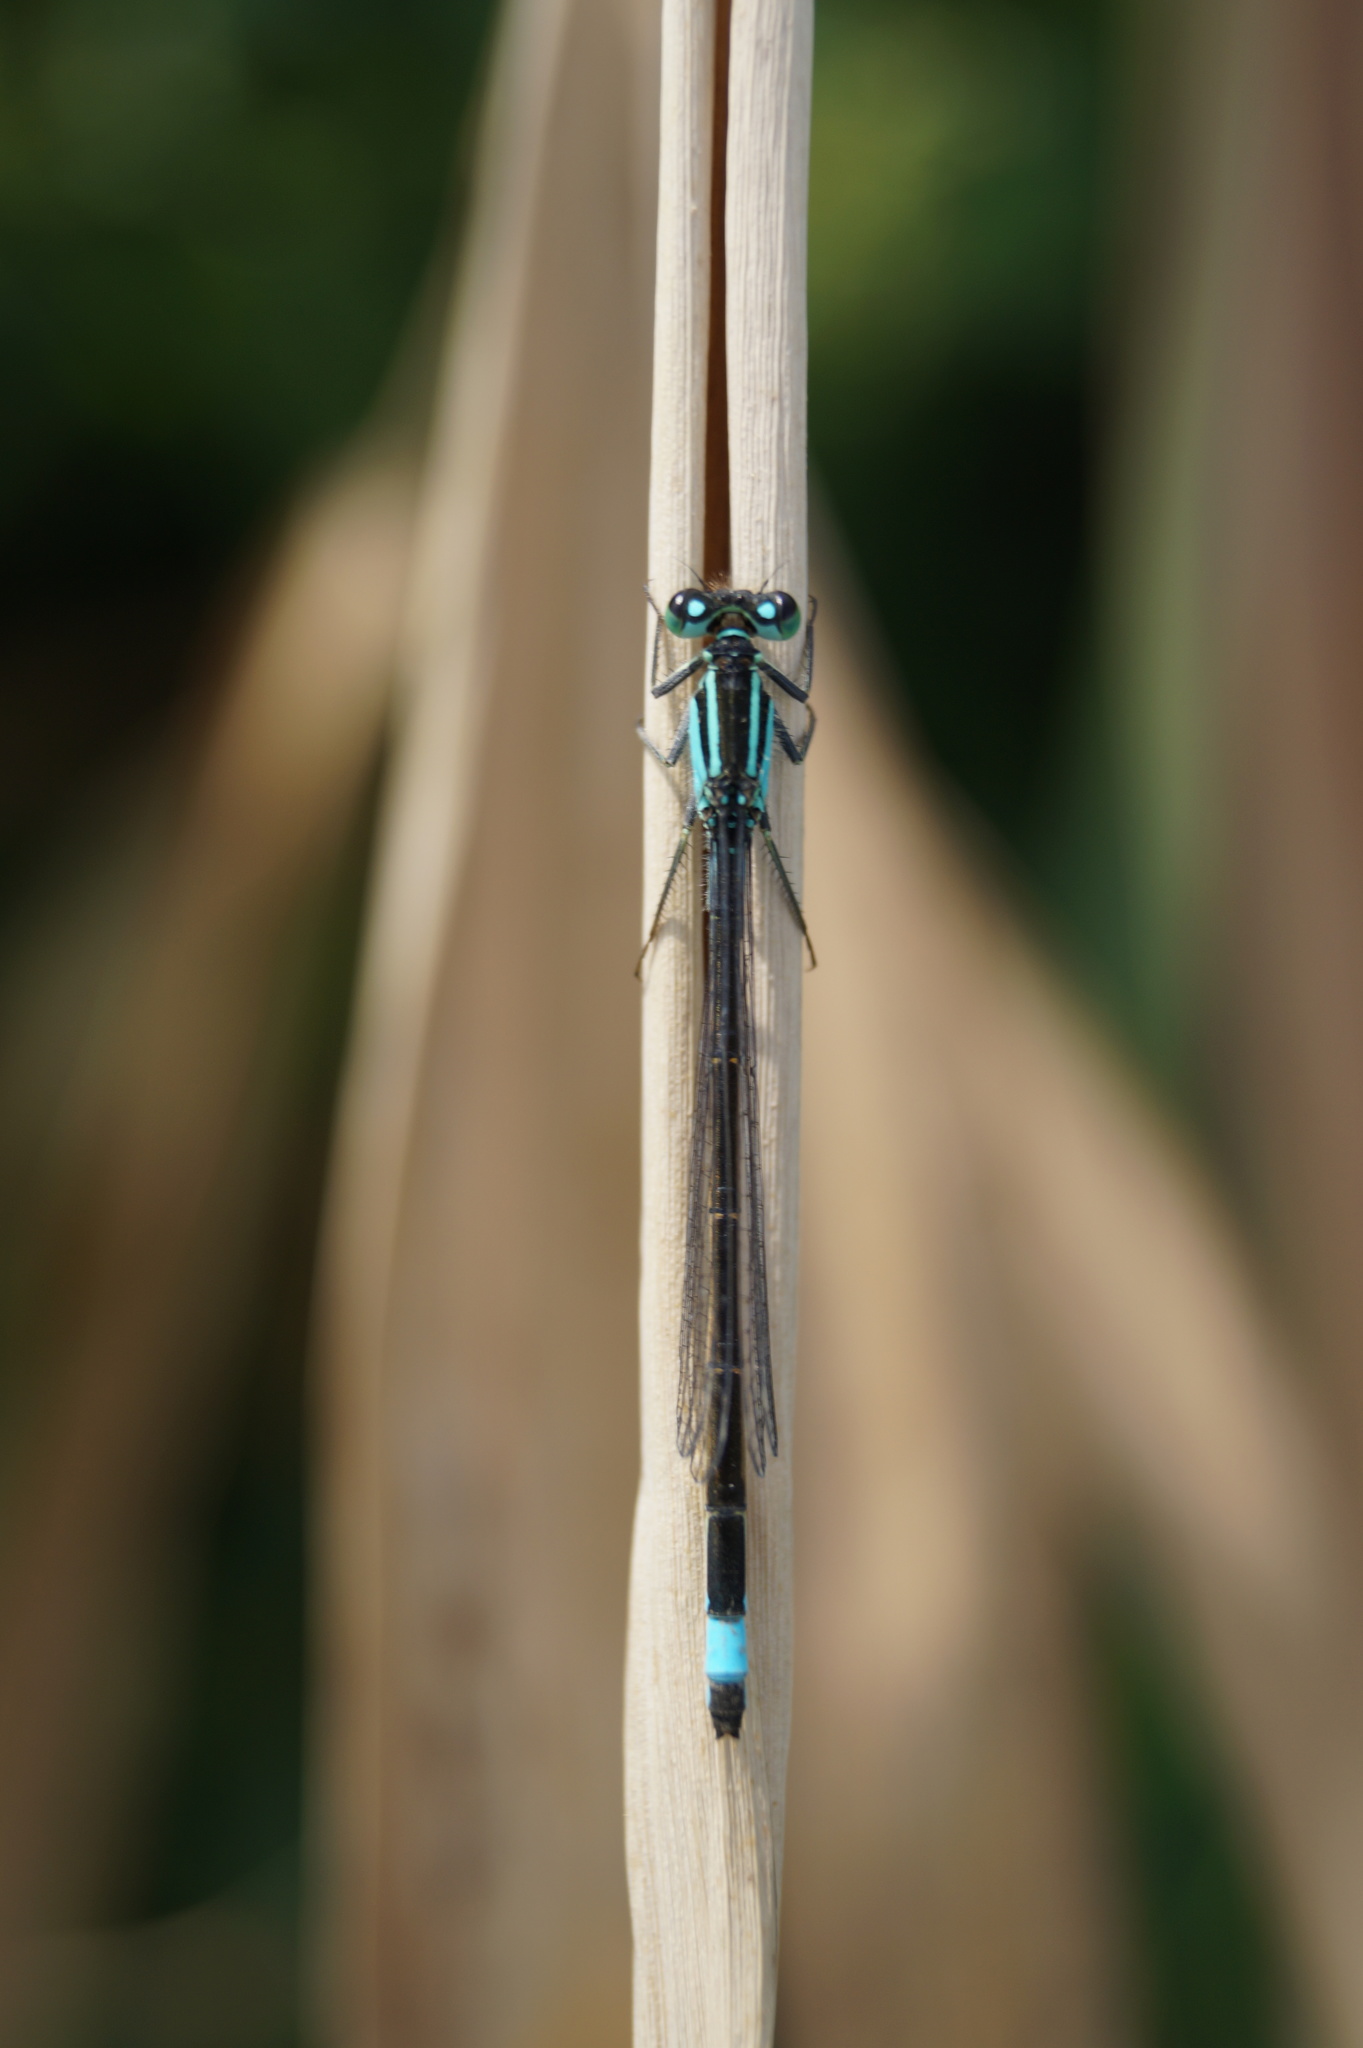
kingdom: Animalia
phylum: Arthropoda
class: Insecta
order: Odonata
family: Coenagrionidae
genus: Ischnura
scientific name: Ischnura elegans
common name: Blue-tailed damselfly
